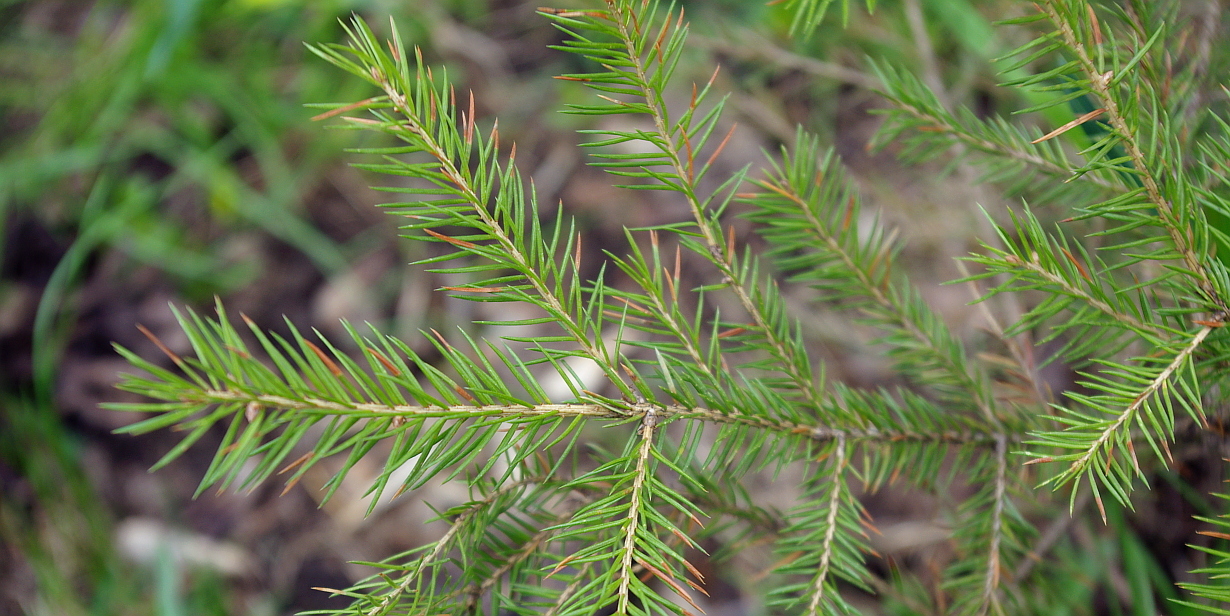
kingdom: Plantae
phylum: Tracheophyta
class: Pinopsida
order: Pinales
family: Pinaceae
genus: Picea
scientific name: Picea abies
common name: Norway spruce
